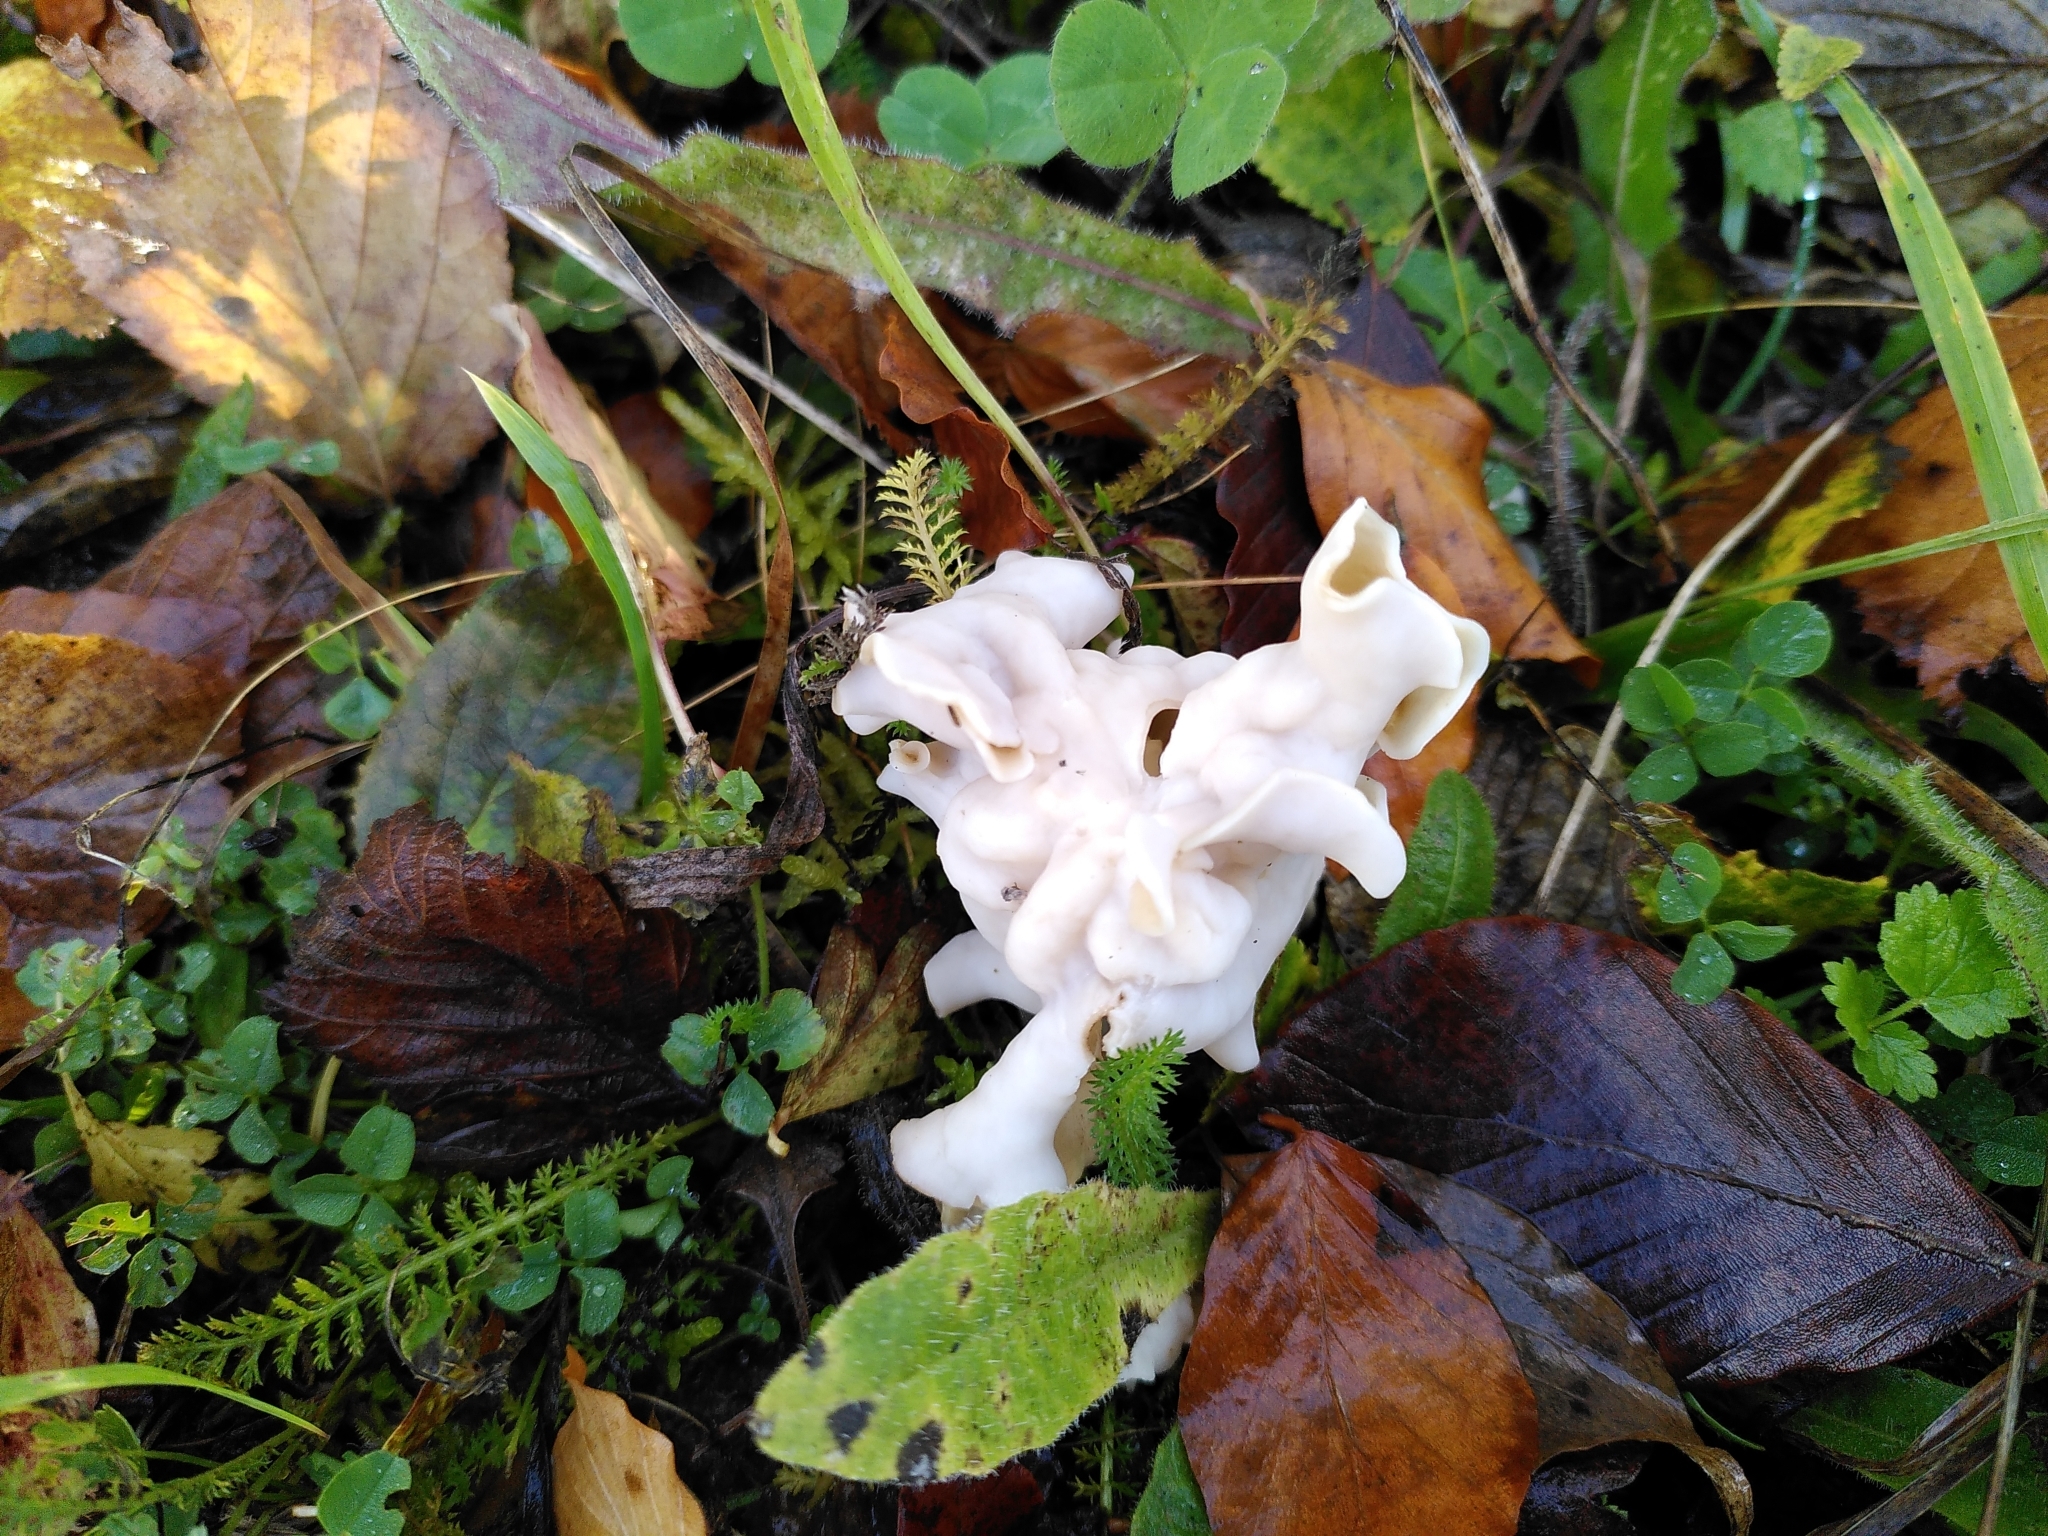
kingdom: Fungi
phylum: Ascomycota
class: Pezizomycetes
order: Pezizales
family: Helvellaceae
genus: Helvella
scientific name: Helvella crispa
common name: White saddle
